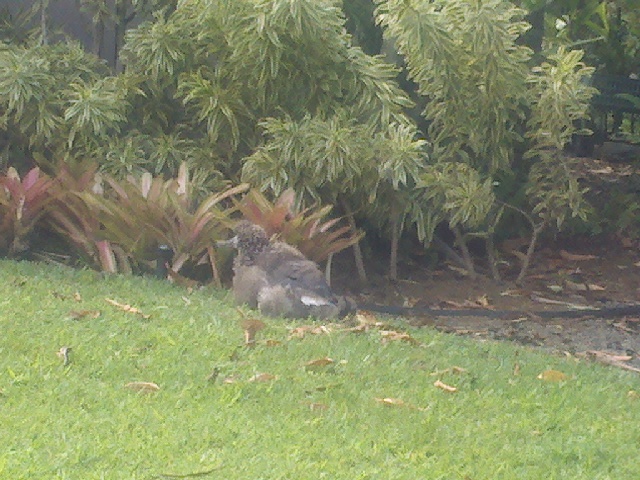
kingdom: Animalia
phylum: Chordata
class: Aves
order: Procellariiformes
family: Diomedeidae
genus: Phoebastria
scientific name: Phoebastria immutabilis
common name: Laysan albatross
